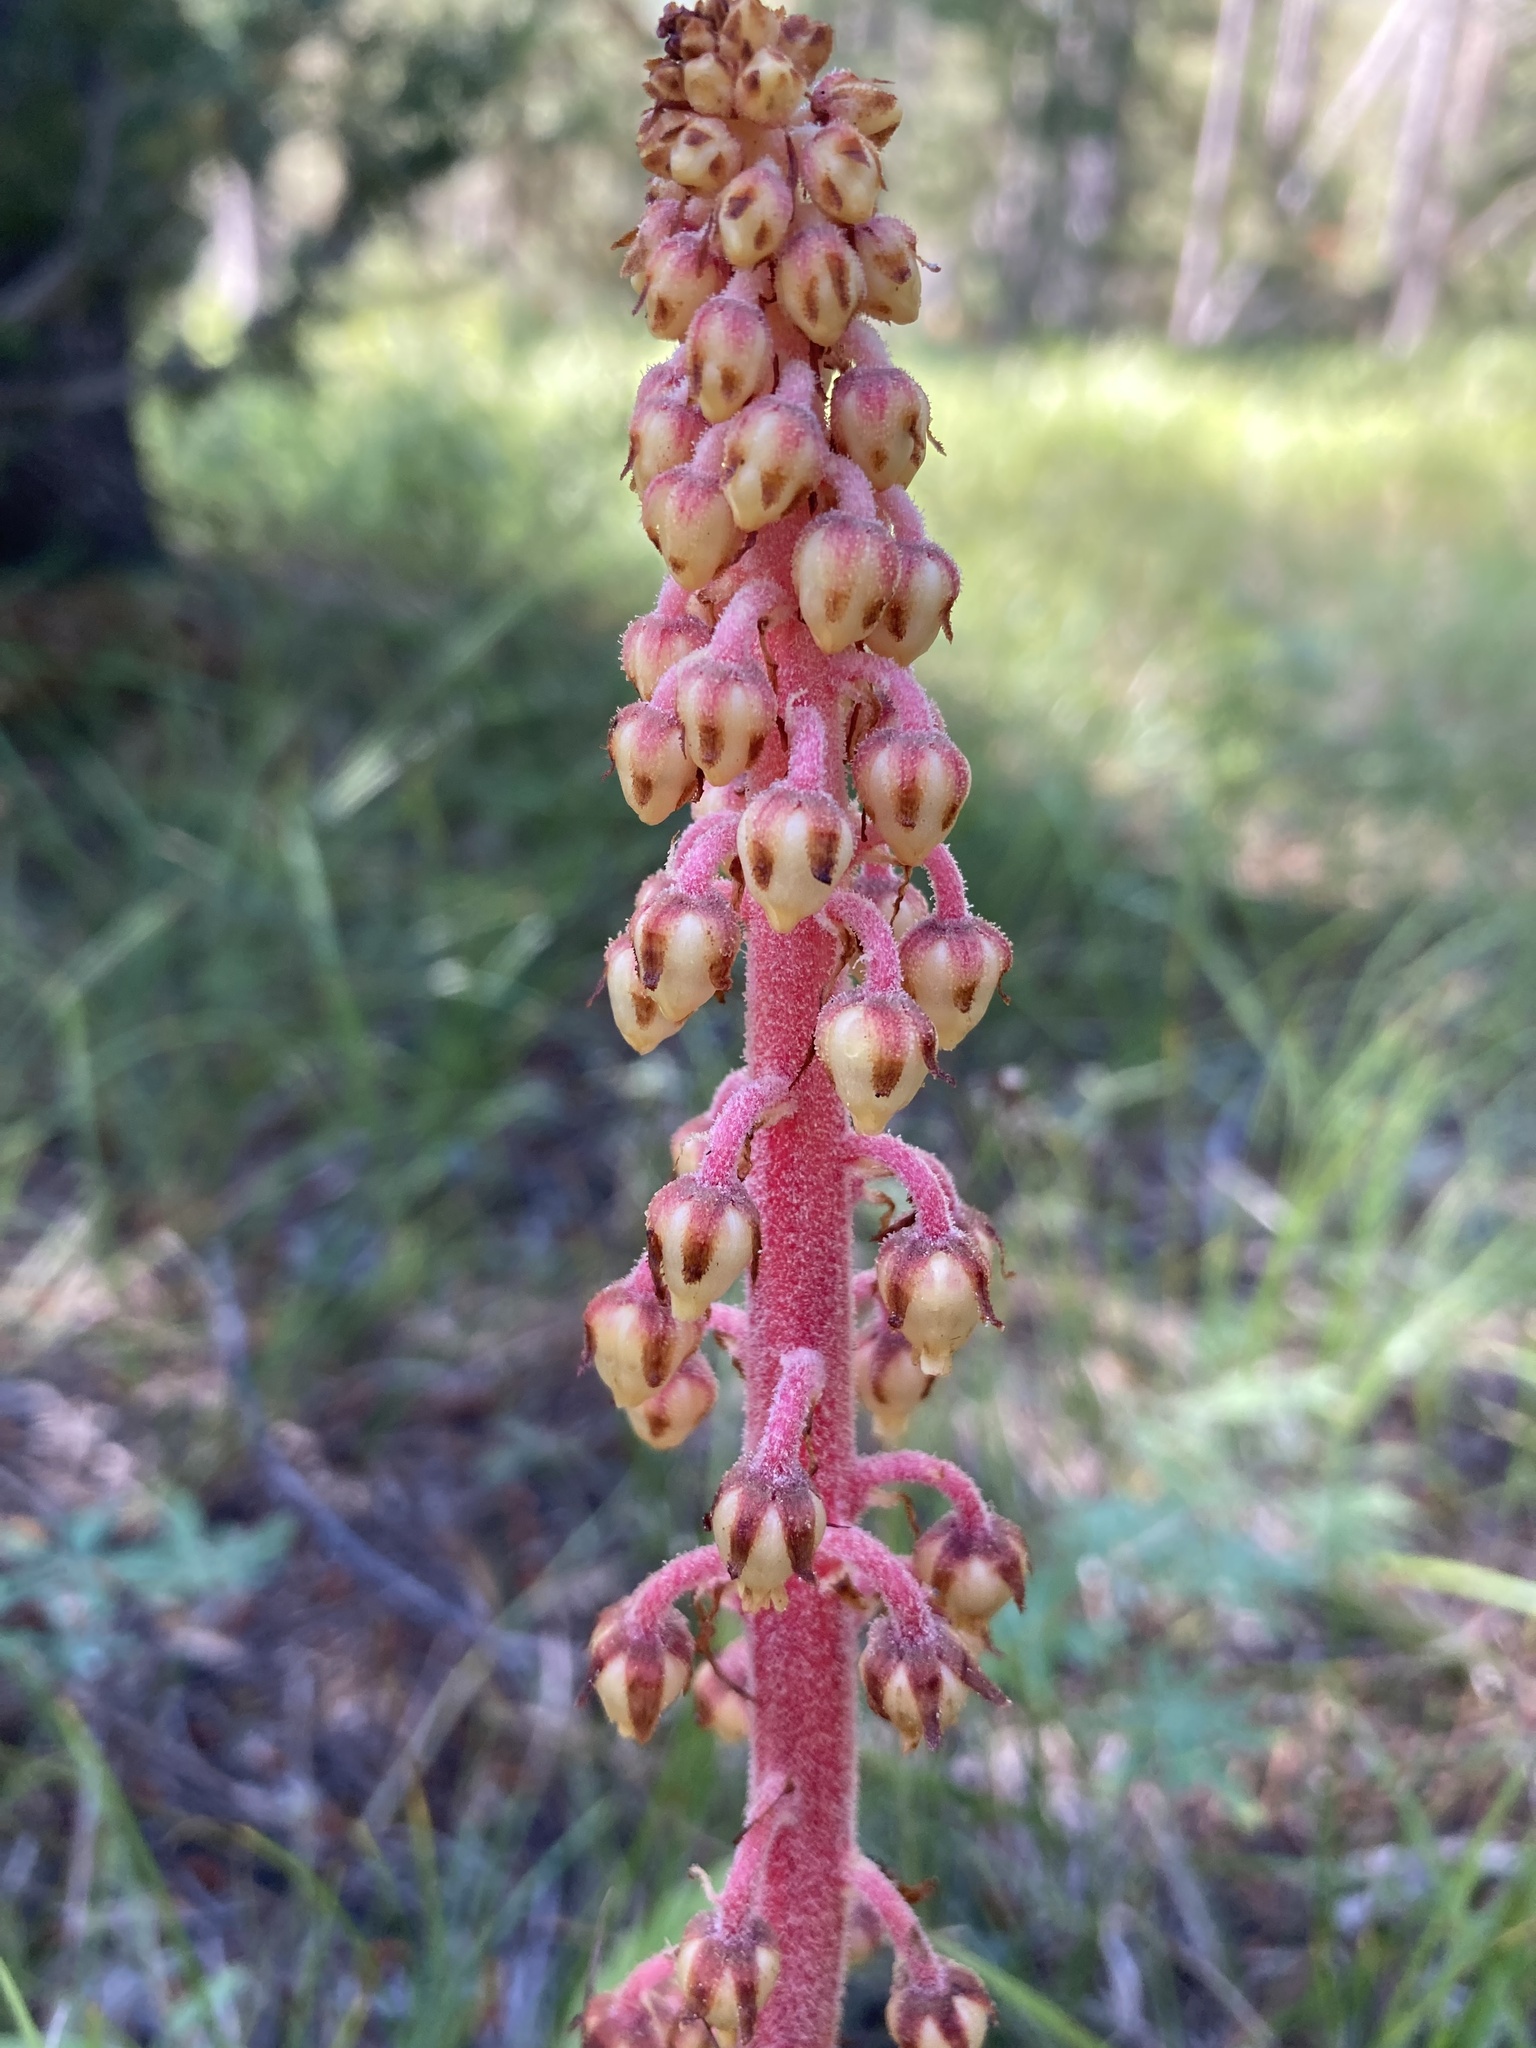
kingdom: Plantae
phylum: Tracheophyta
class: Magnoliopsida
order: Ericales
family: Ericaceae
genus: Pterospora
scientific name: Pterospora andromedea
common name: Giant bird's-nest
